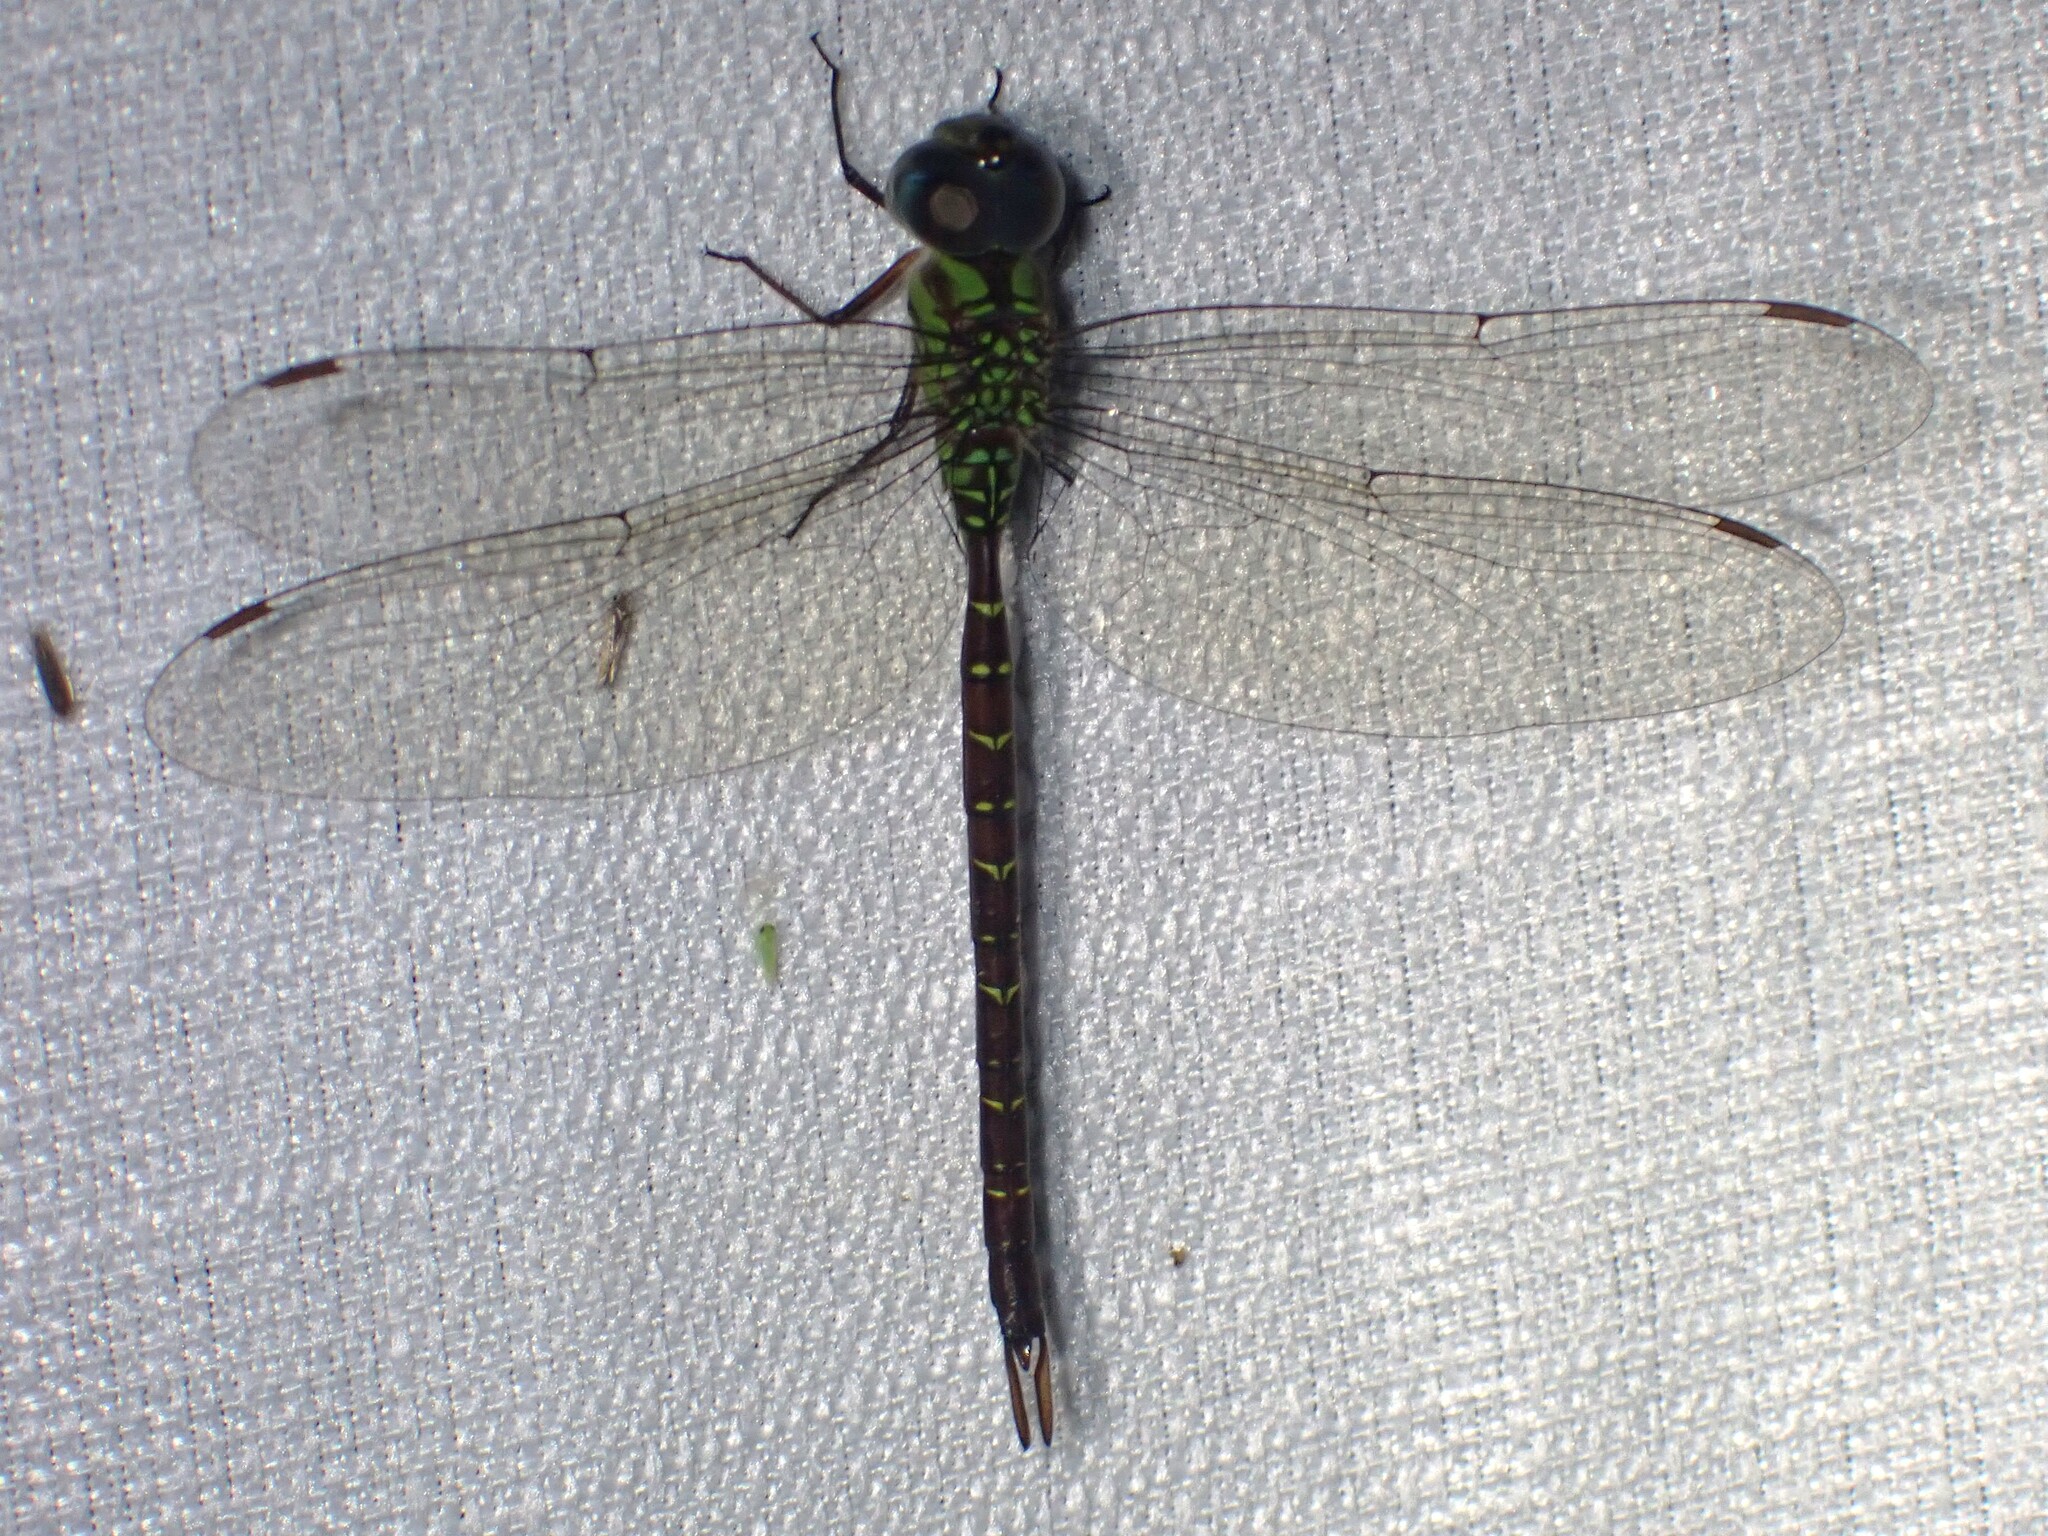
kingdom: Animalia
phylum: Arthropoda
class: Insecta
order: Odonata
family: Aeshnidae
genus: Triacanthagyna
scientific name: Triacanthagyna caribbea
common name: Caribbean darner
